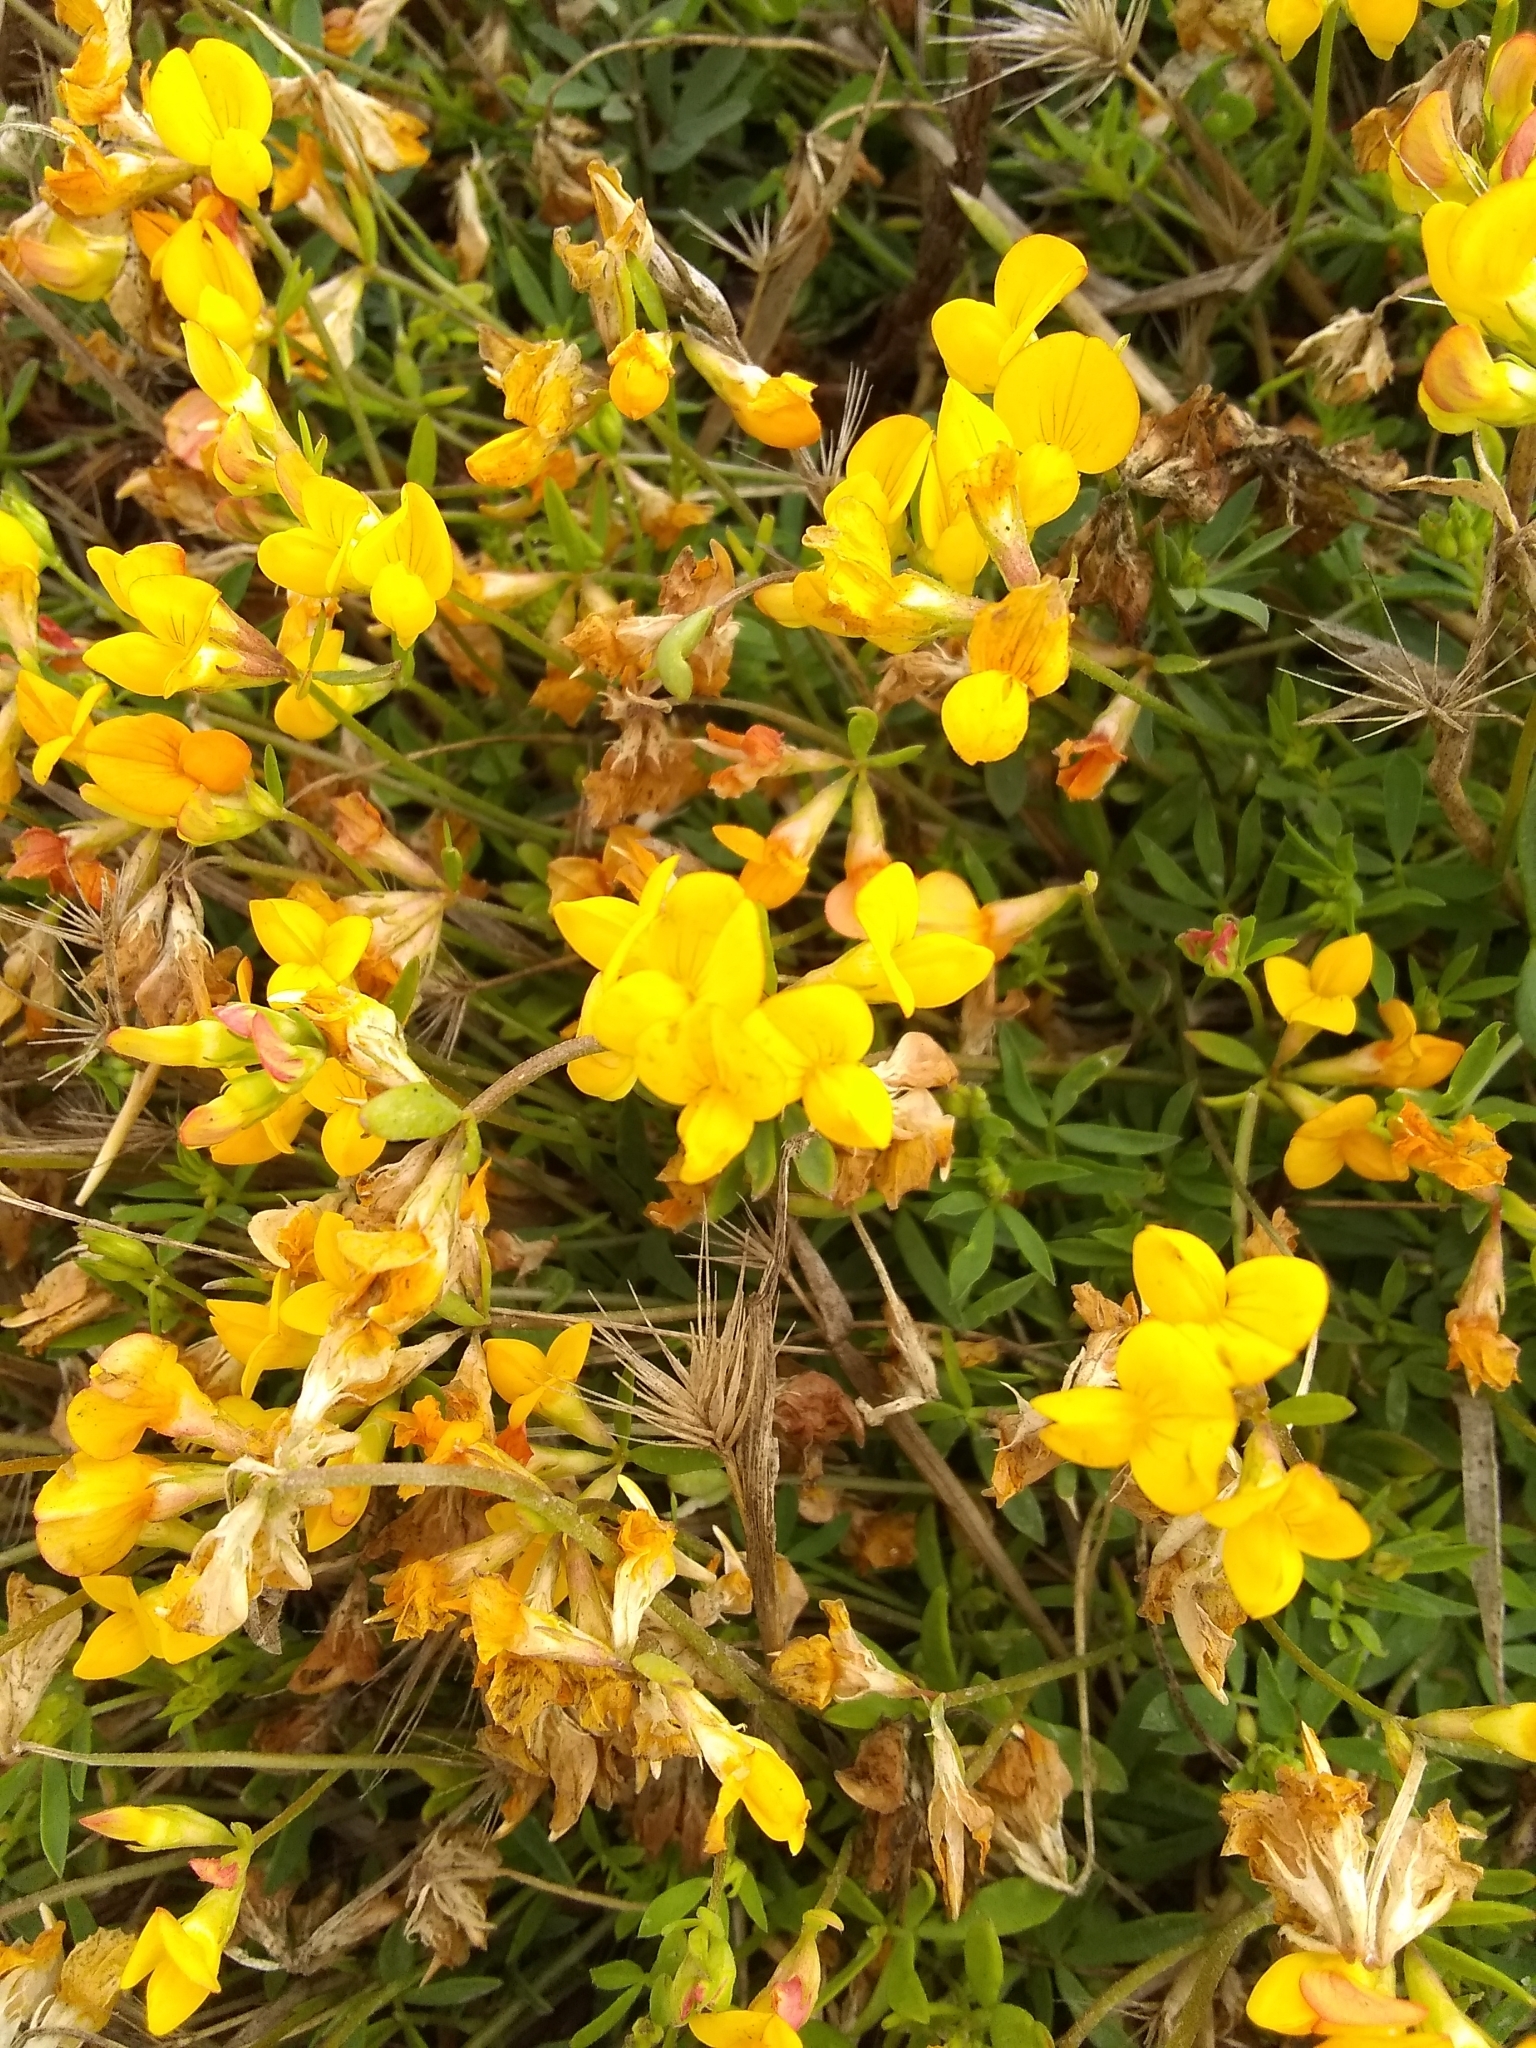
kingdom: Plantae
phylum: Tracheophyta
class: Magnoliopsida
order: Fabales
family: Fabaceae
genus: Lotus
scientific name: Lotus corniculatus
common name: Common bird's-foot-trefoil
